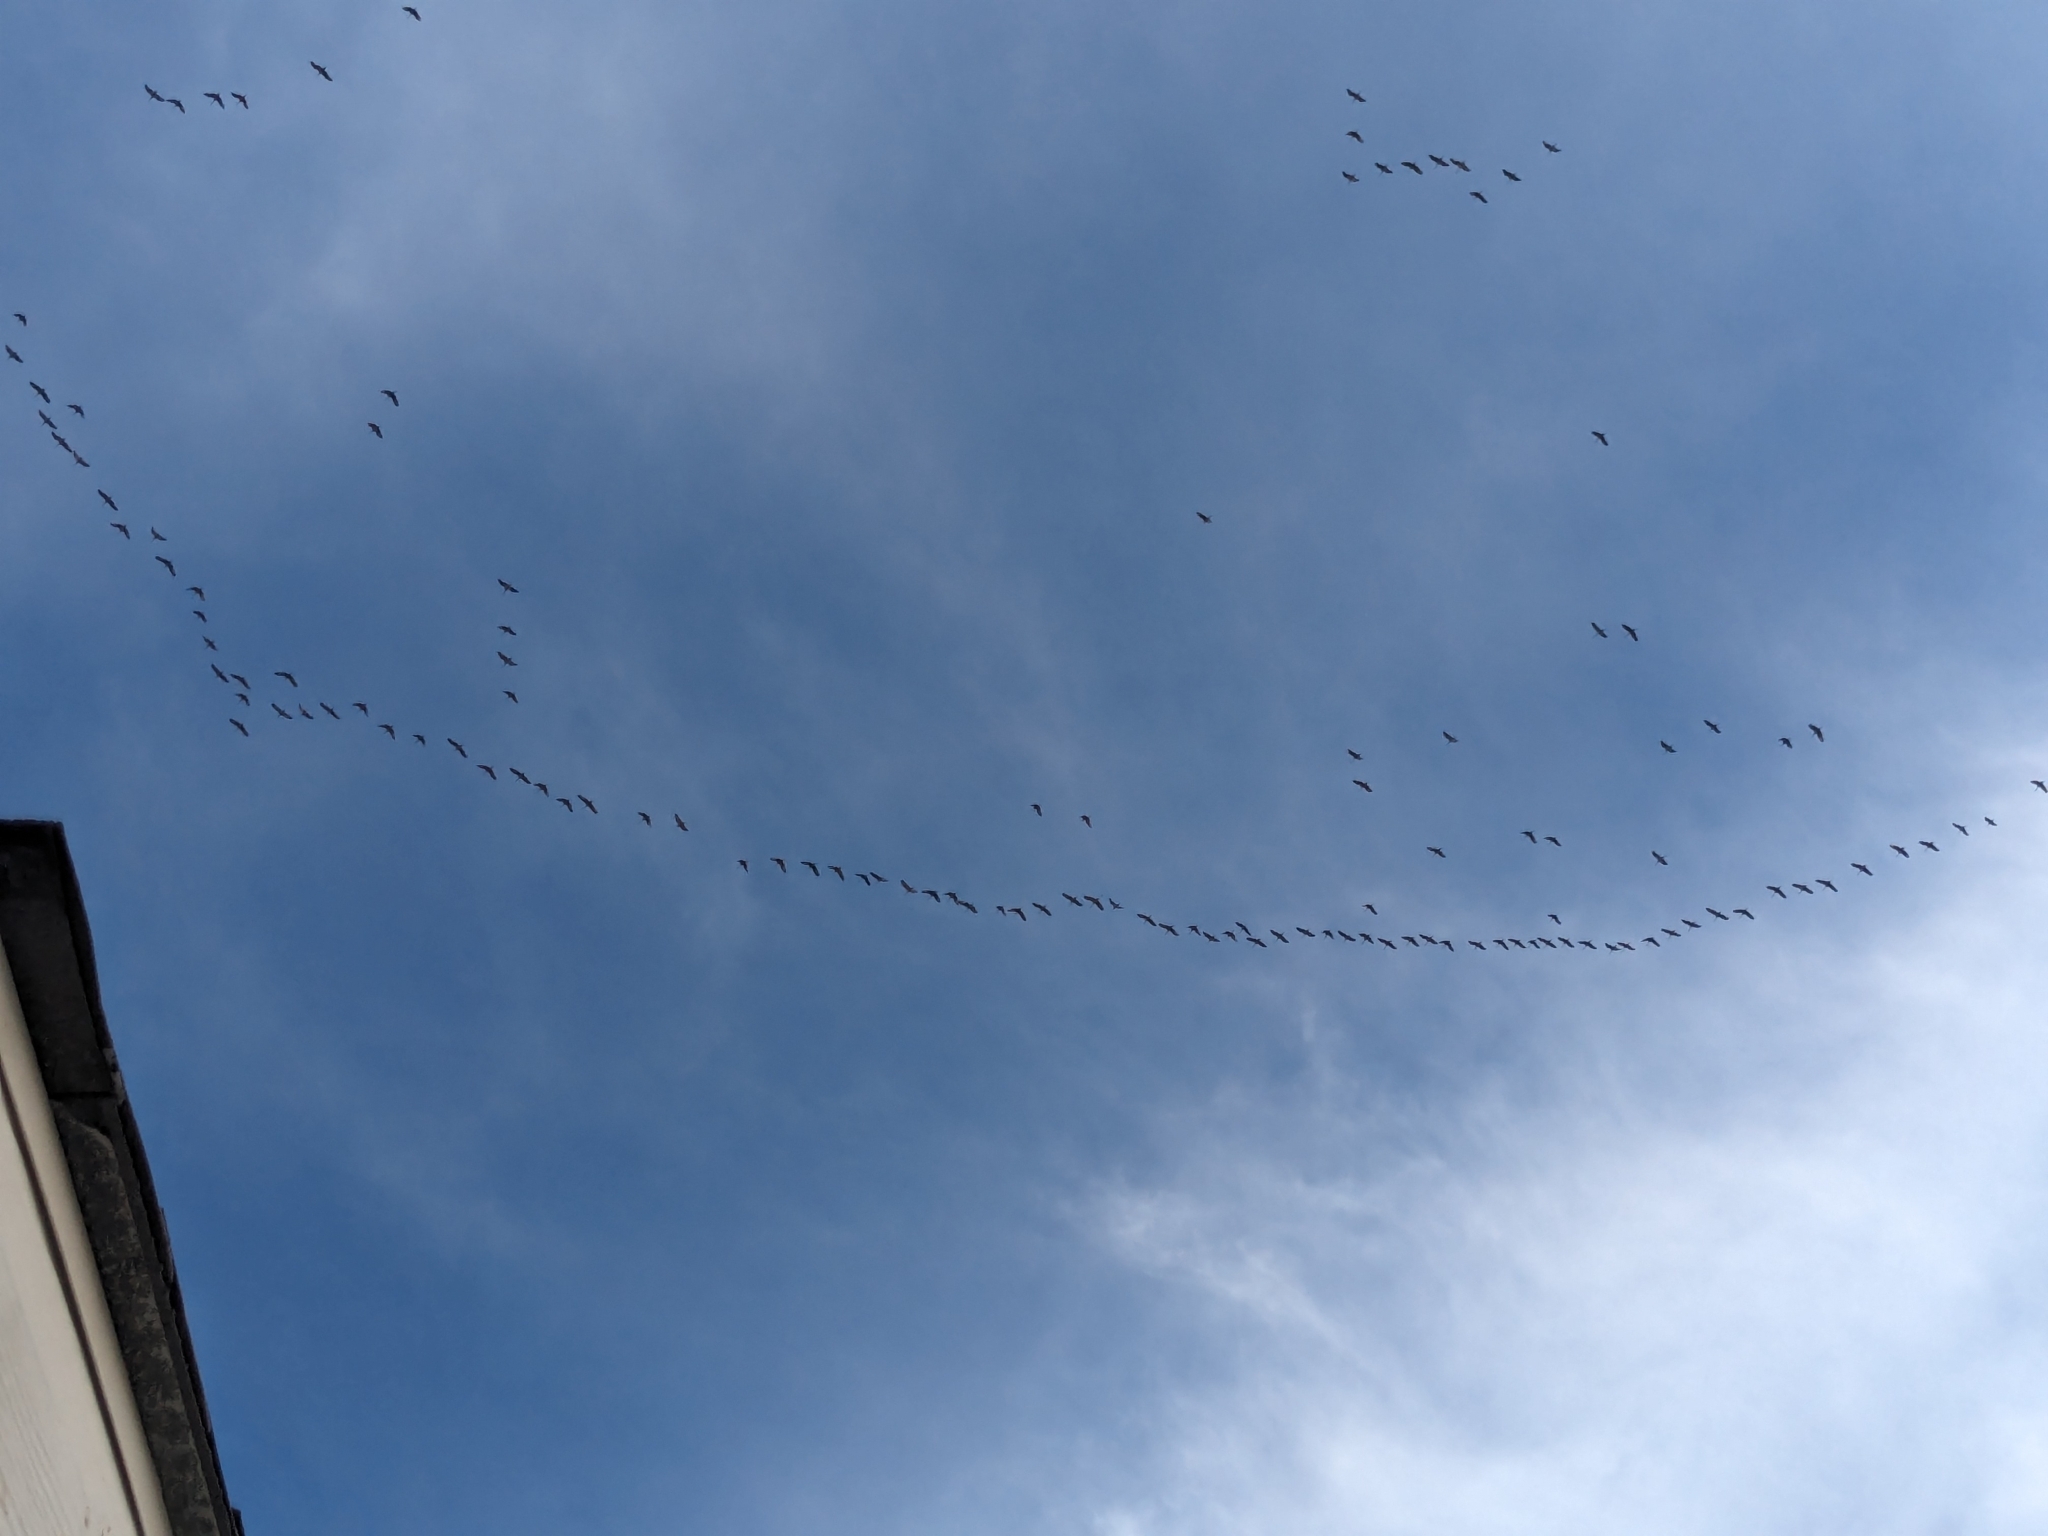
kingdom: Animalia
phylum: Chordata
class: Aves
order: Gruiformes
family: Gruidae
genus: Grus
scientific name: Grus canadensis
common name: Sandhill crane
